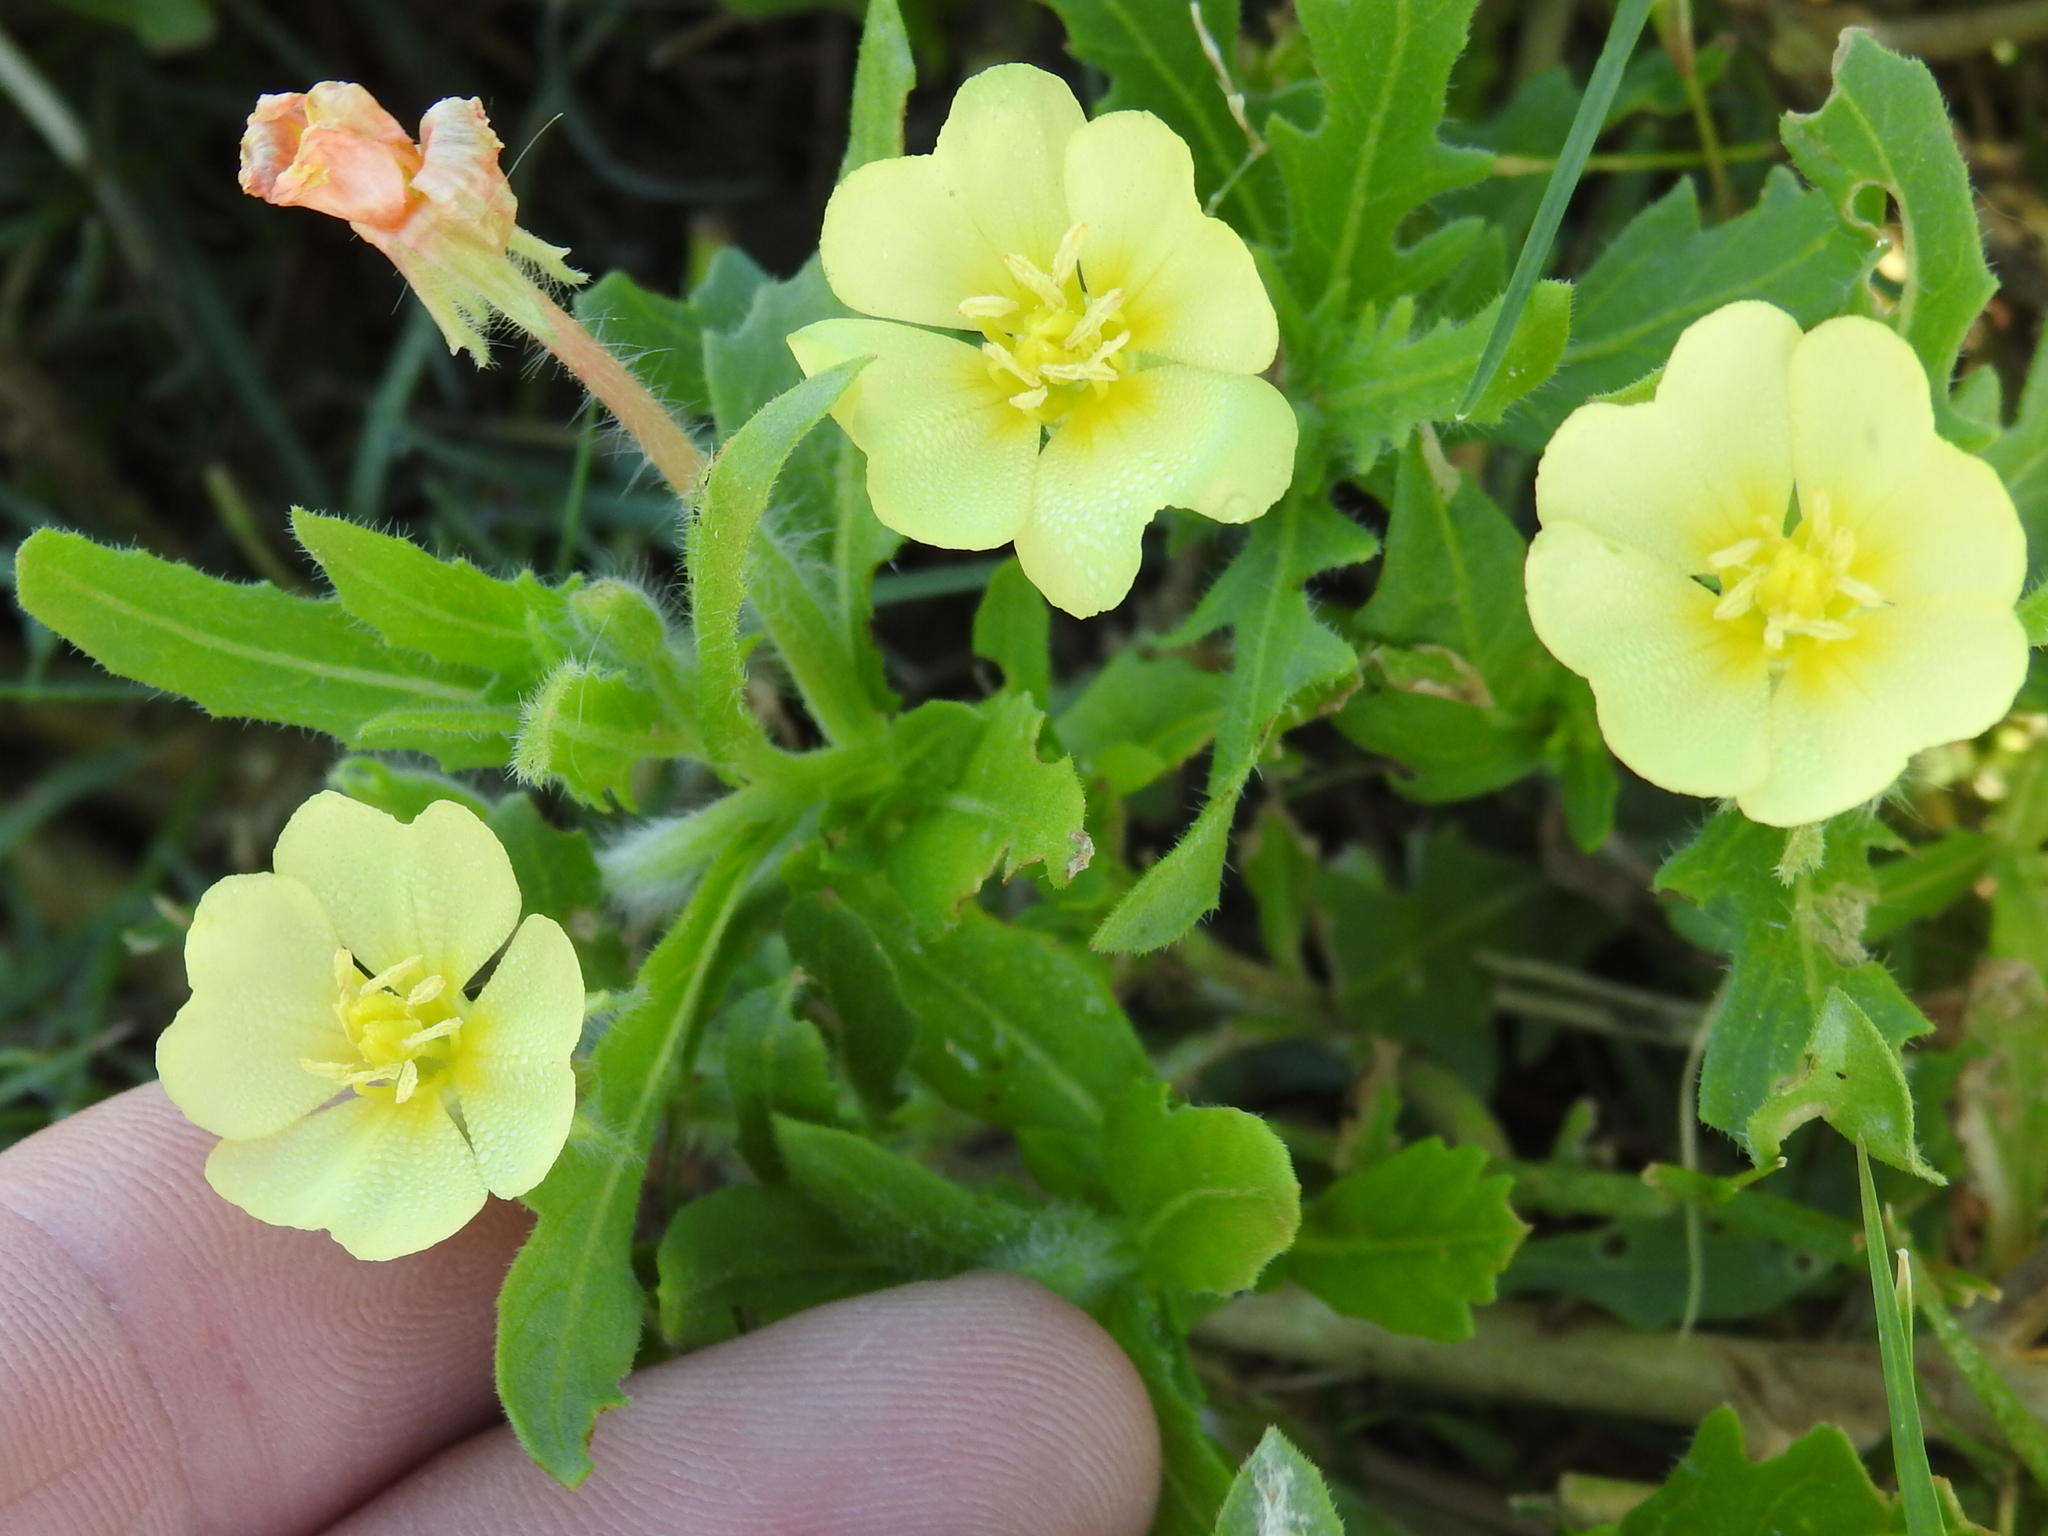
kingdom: Plantae
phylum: Tracheophyta
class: Magnoliopsida
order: Myrtales
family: Onagraceae
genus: Oenothera
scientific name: Oenothera laciniata
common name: Cut-leaved evening-primrose
